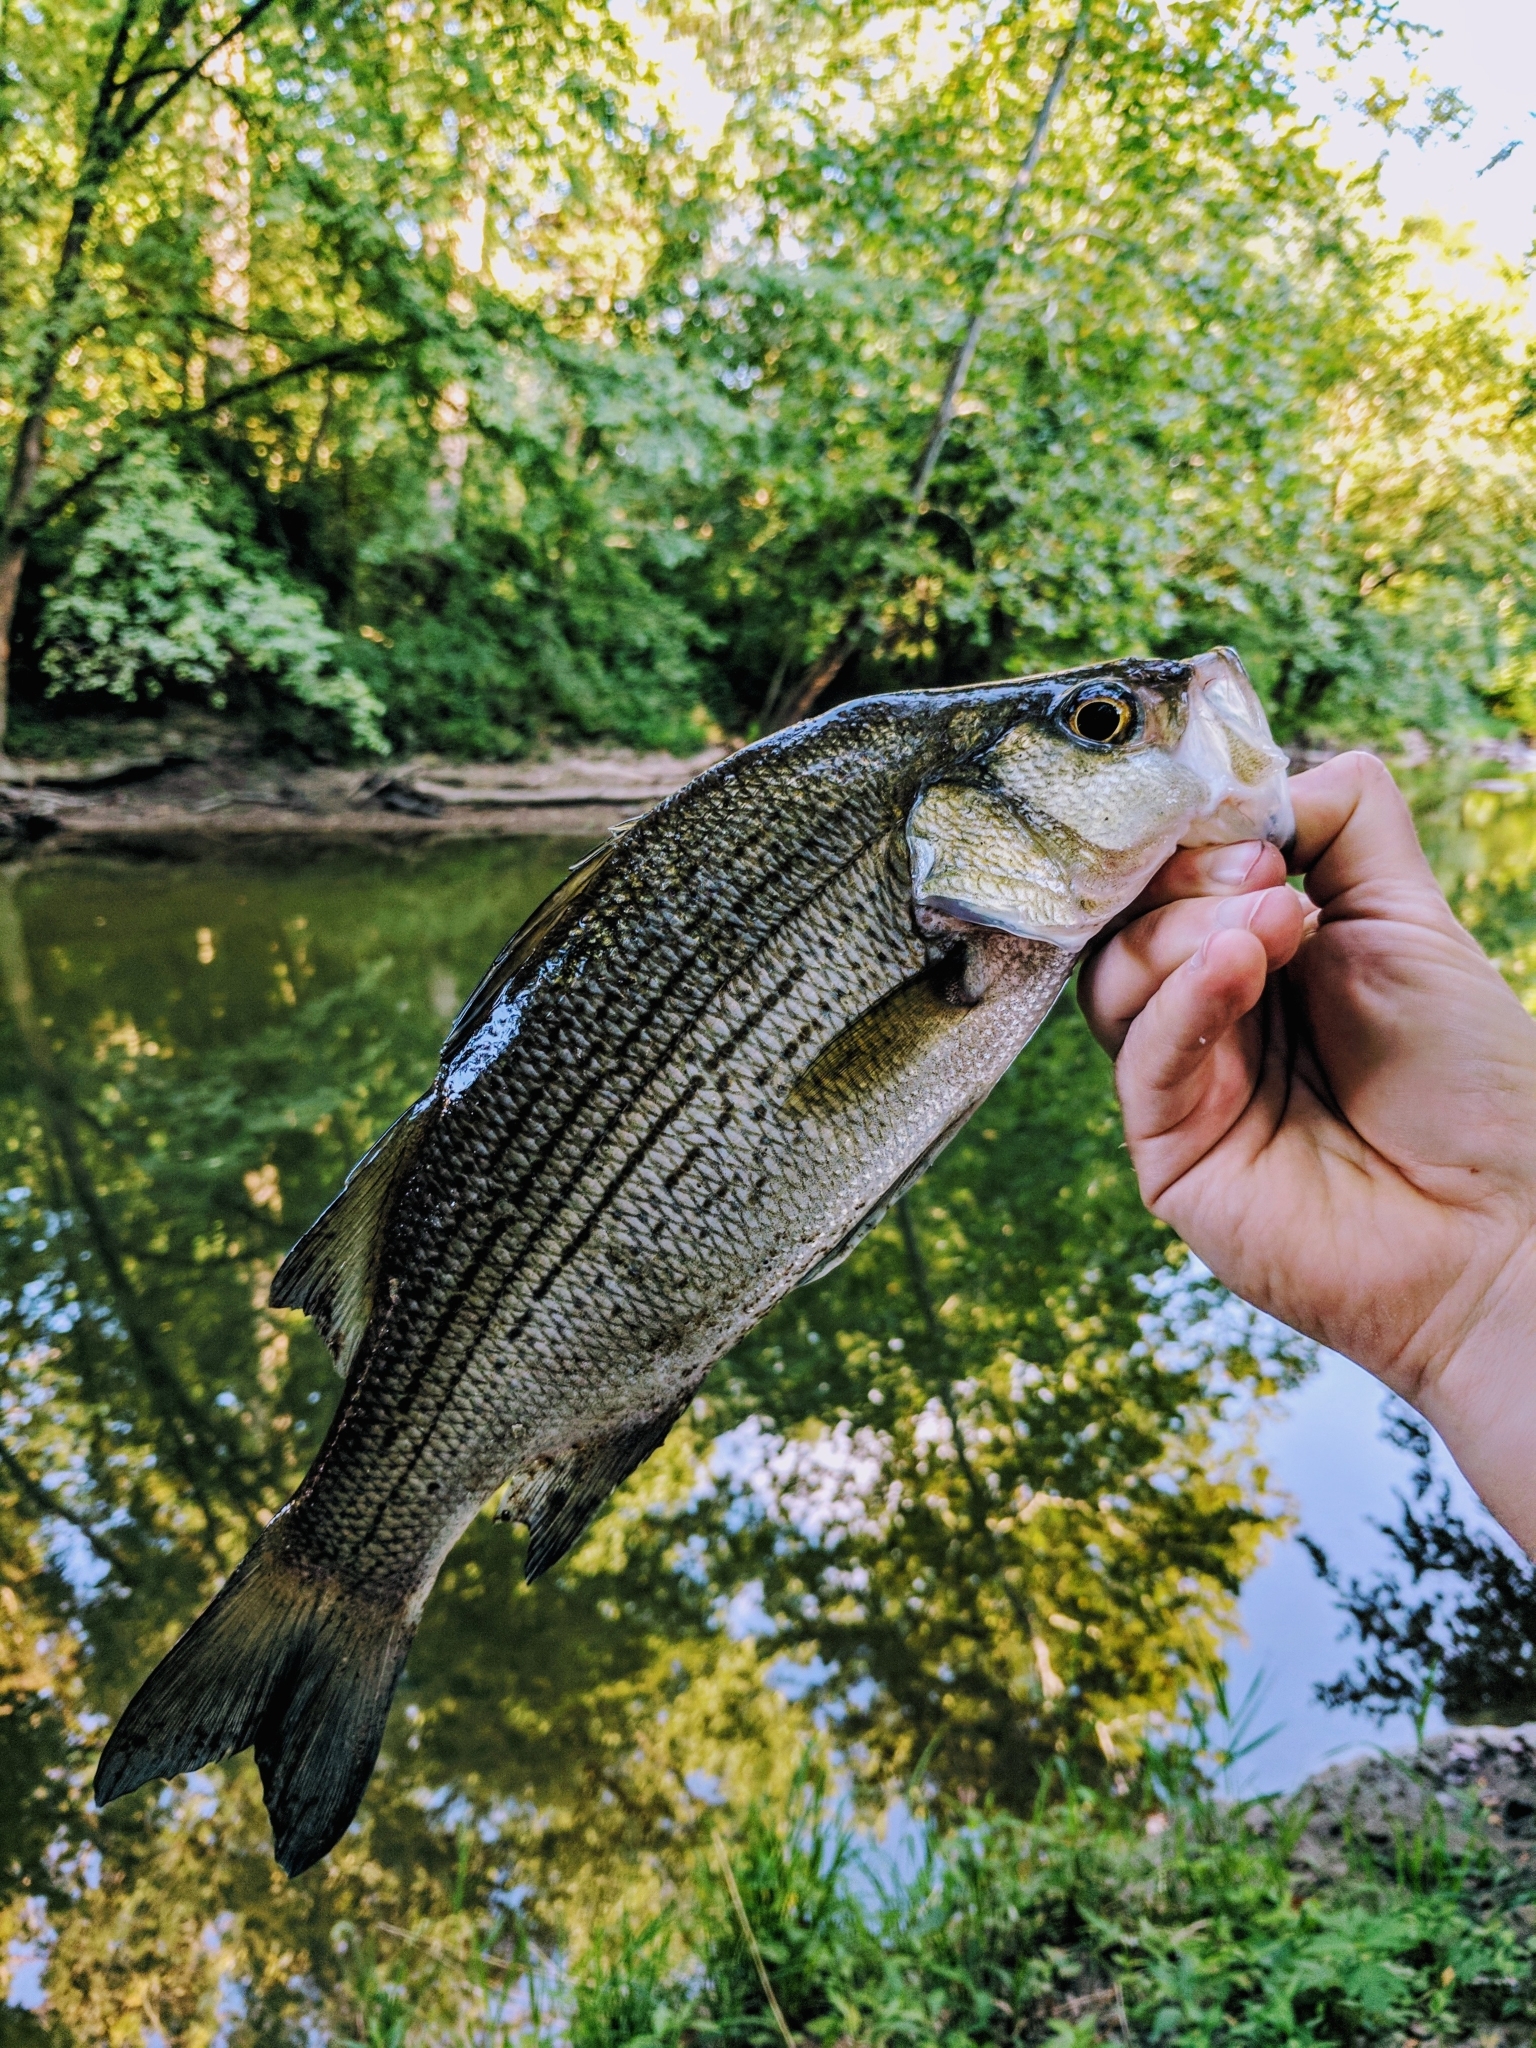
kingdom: Animalia
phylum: Chordata
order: Perciformes
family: Moronidae
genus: Morone
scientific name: Morone chrysops
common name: White bass
